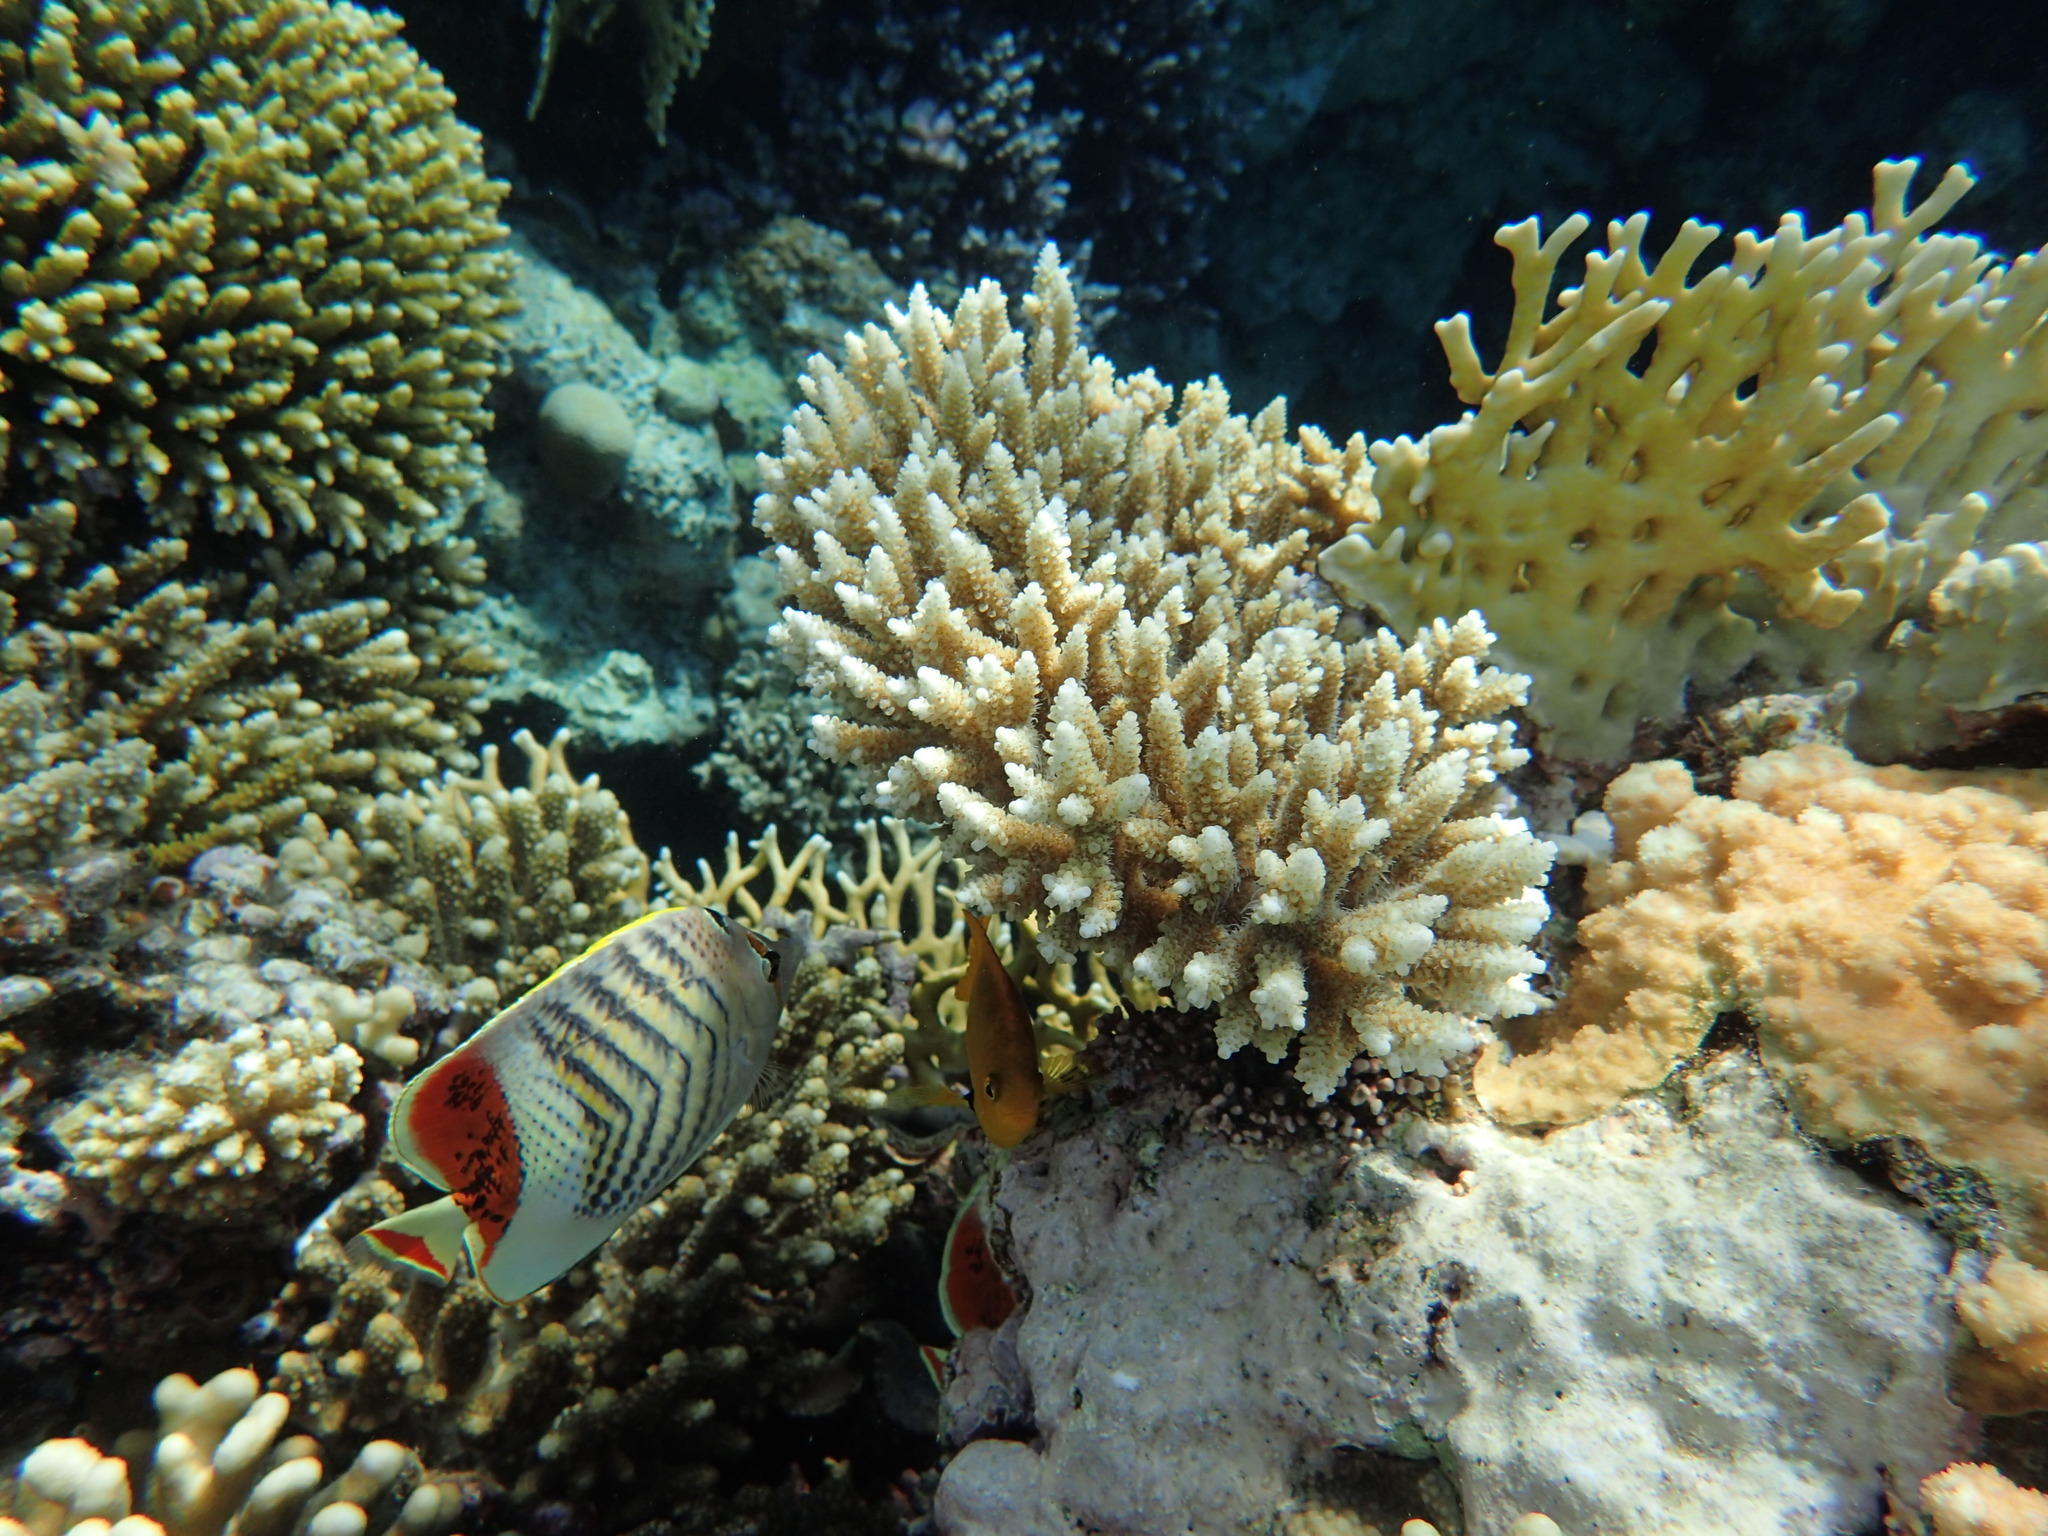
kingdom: Animalia
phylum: Chordata
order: Perciformes
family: Chaetodontidae
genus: Chaetodon
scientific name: Chaetodon paucifasciatus
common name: Crown butterflyfish
